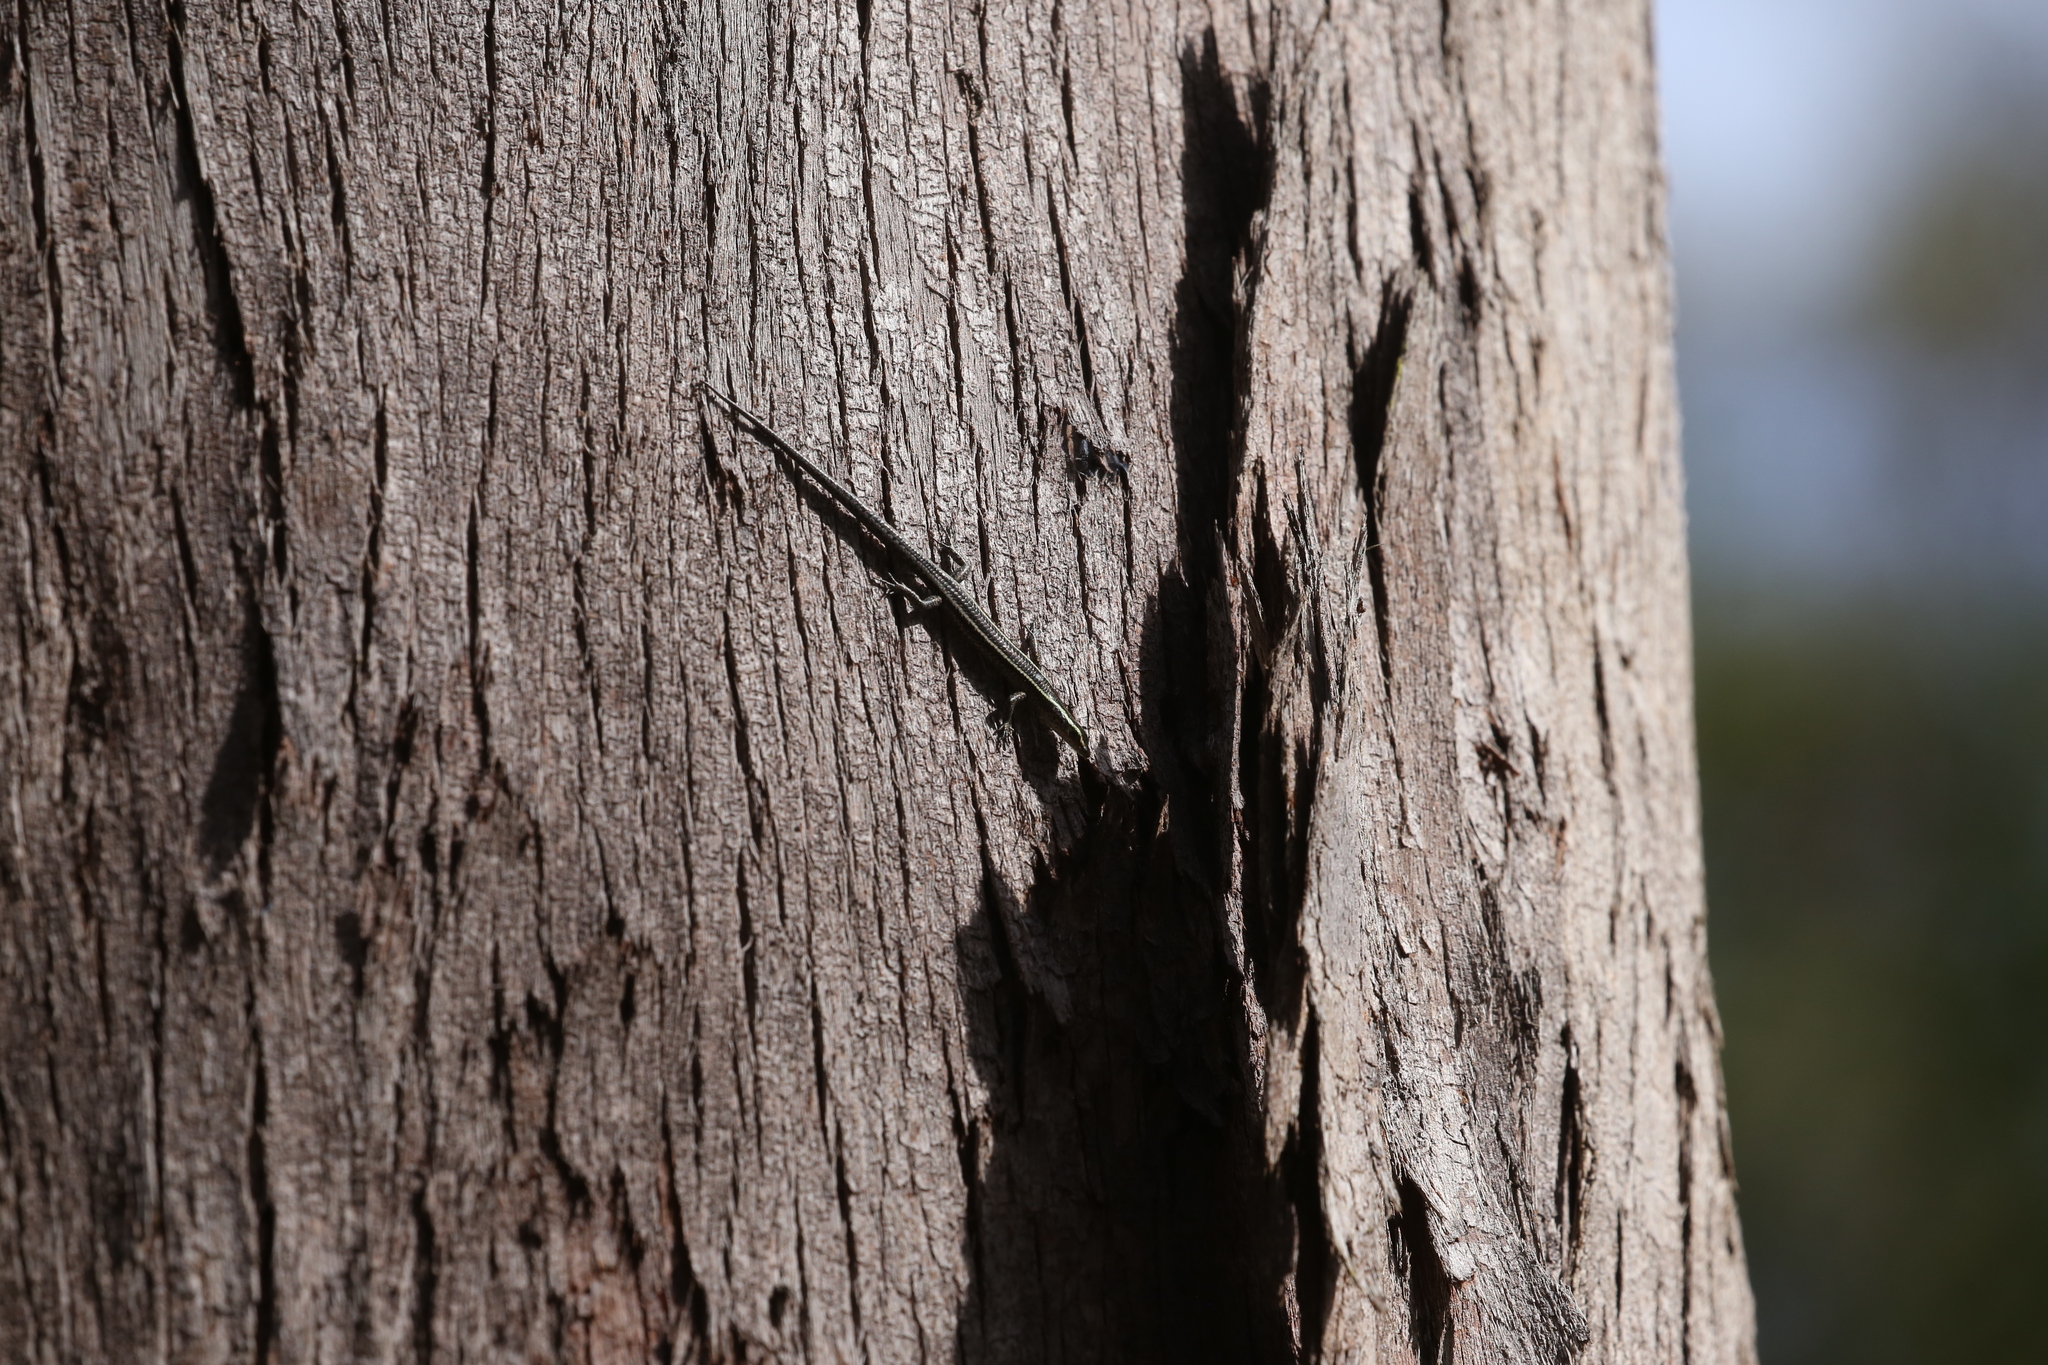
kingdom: Animalia
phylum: Chordata
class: Squamata
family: Scincidae
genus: Cryptoblepharus
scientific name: Cryptoblepharus pulcher
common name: Elegant snake-eyed skink
